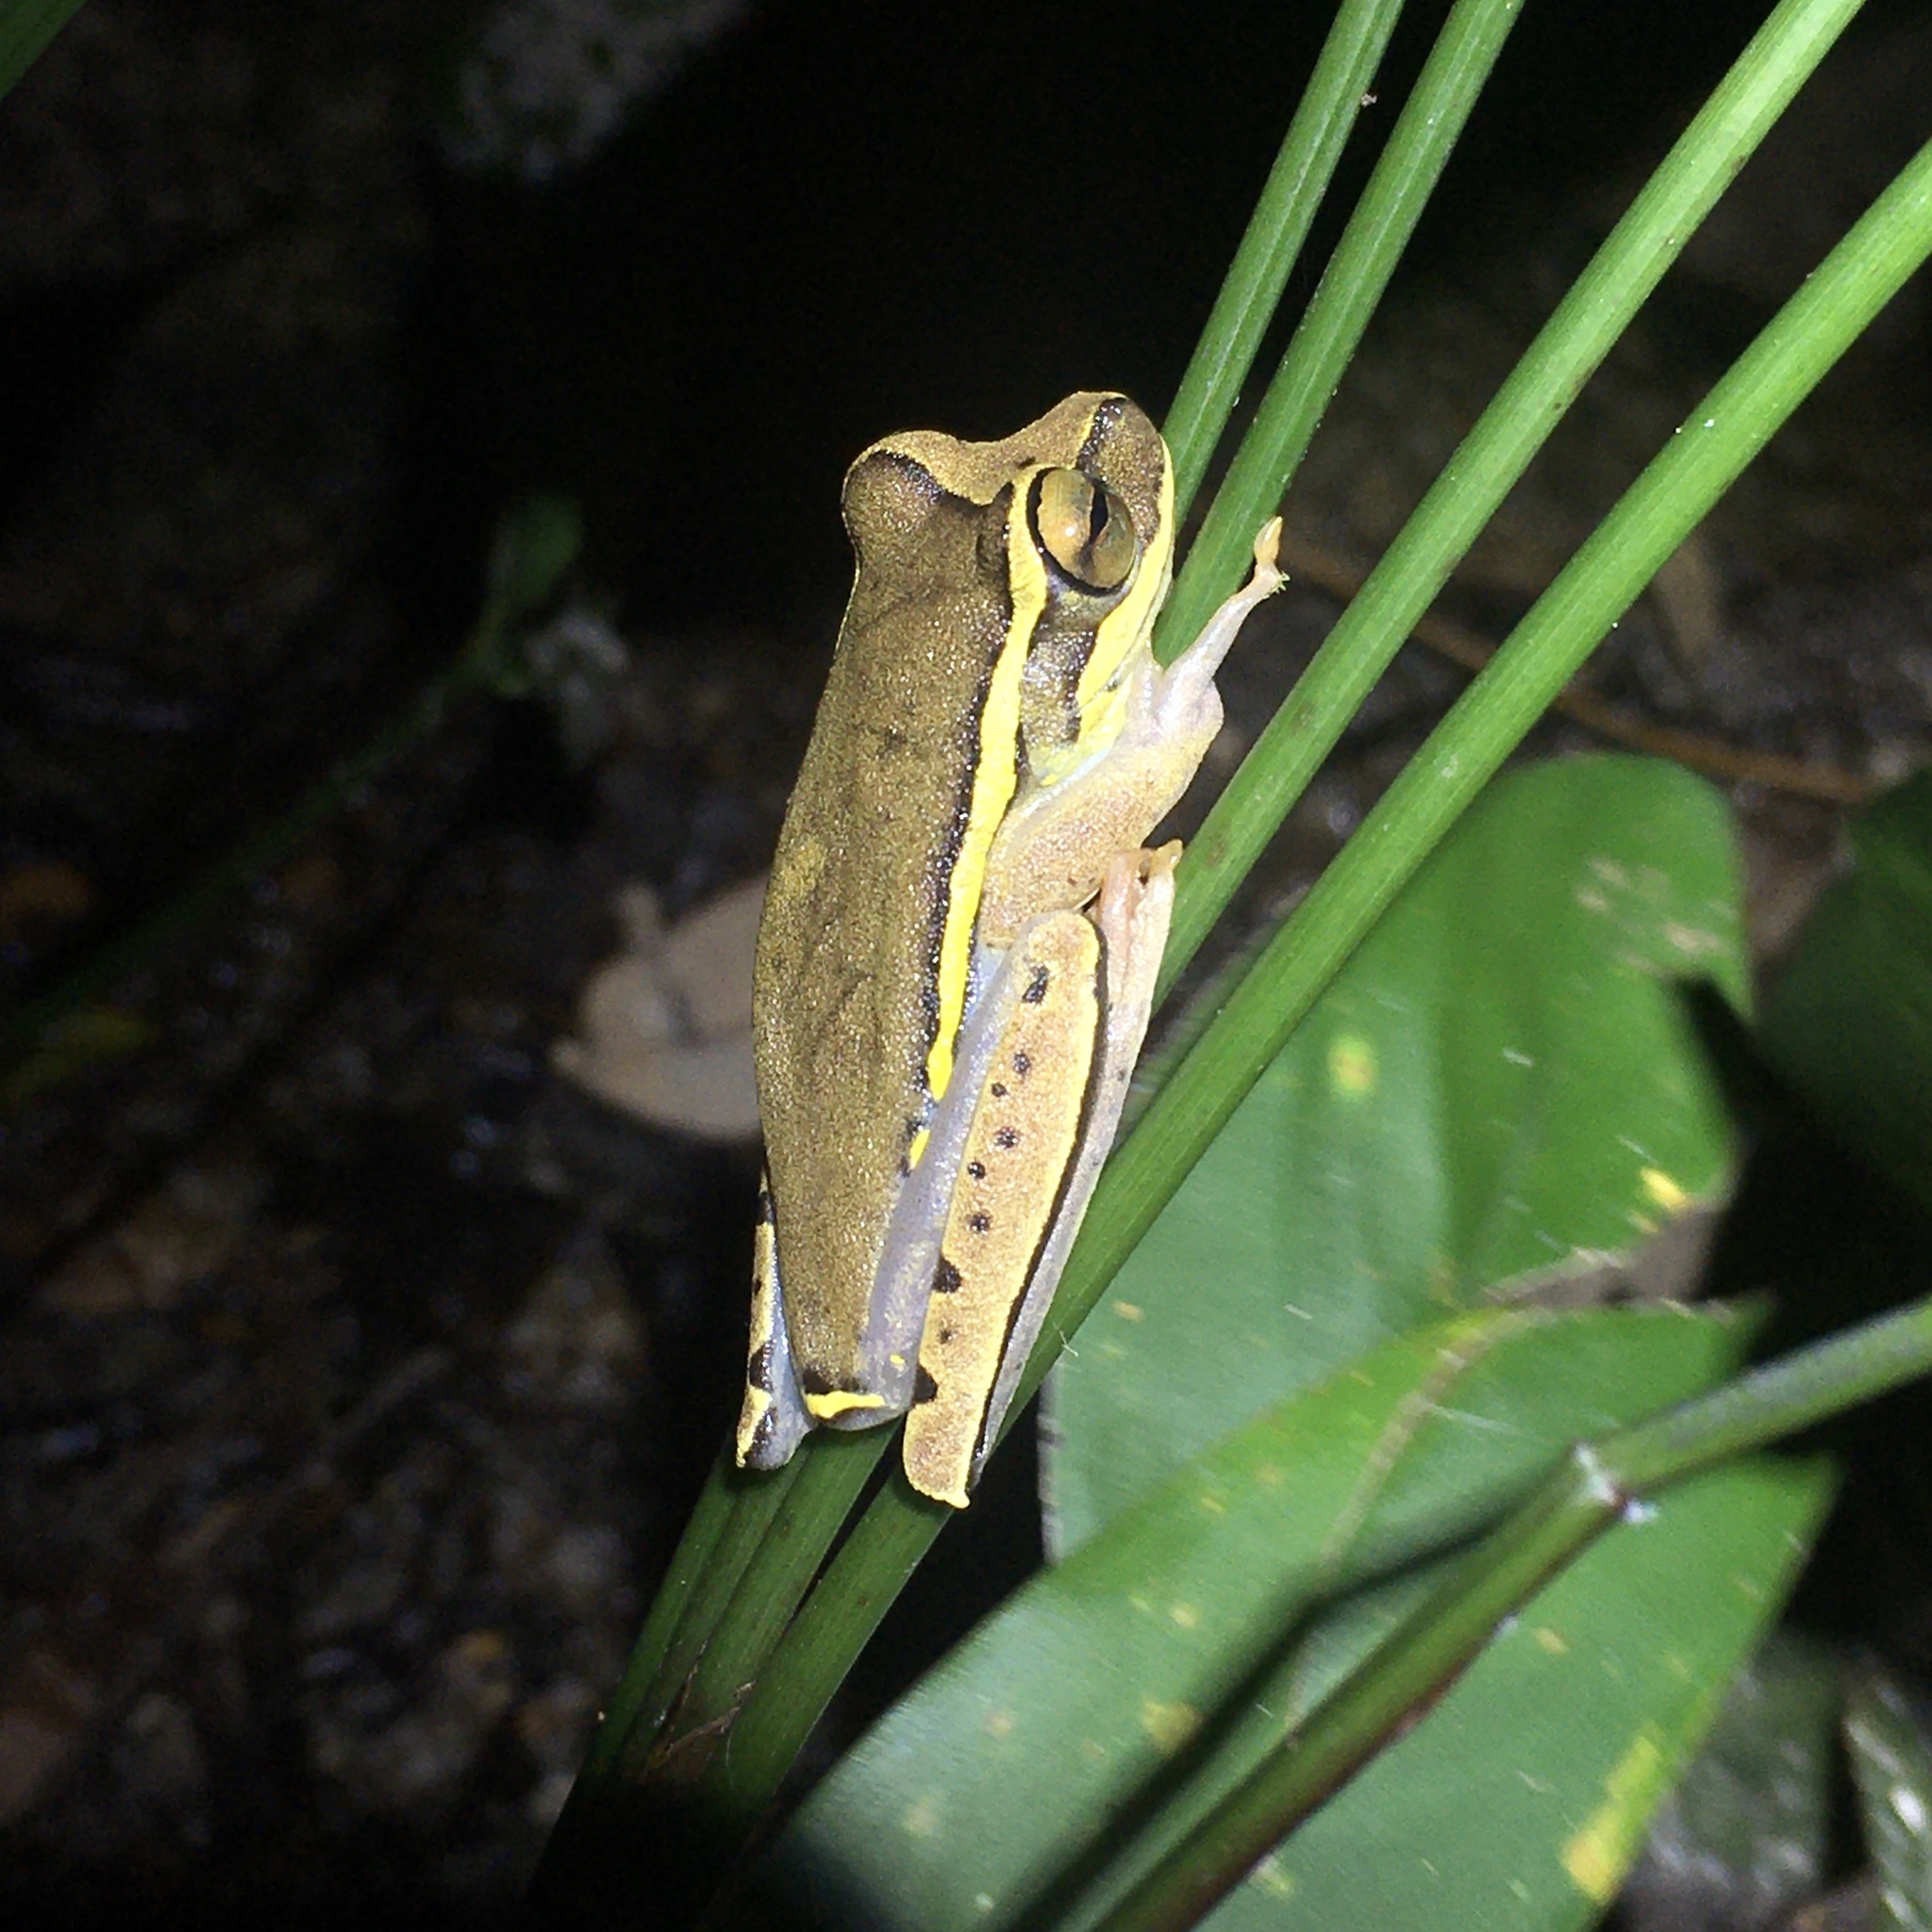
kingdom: Animalia
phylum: Chordata
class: Amphibia
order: Anura
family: Hylidae
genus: Boana
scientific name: Boana freicanecae
